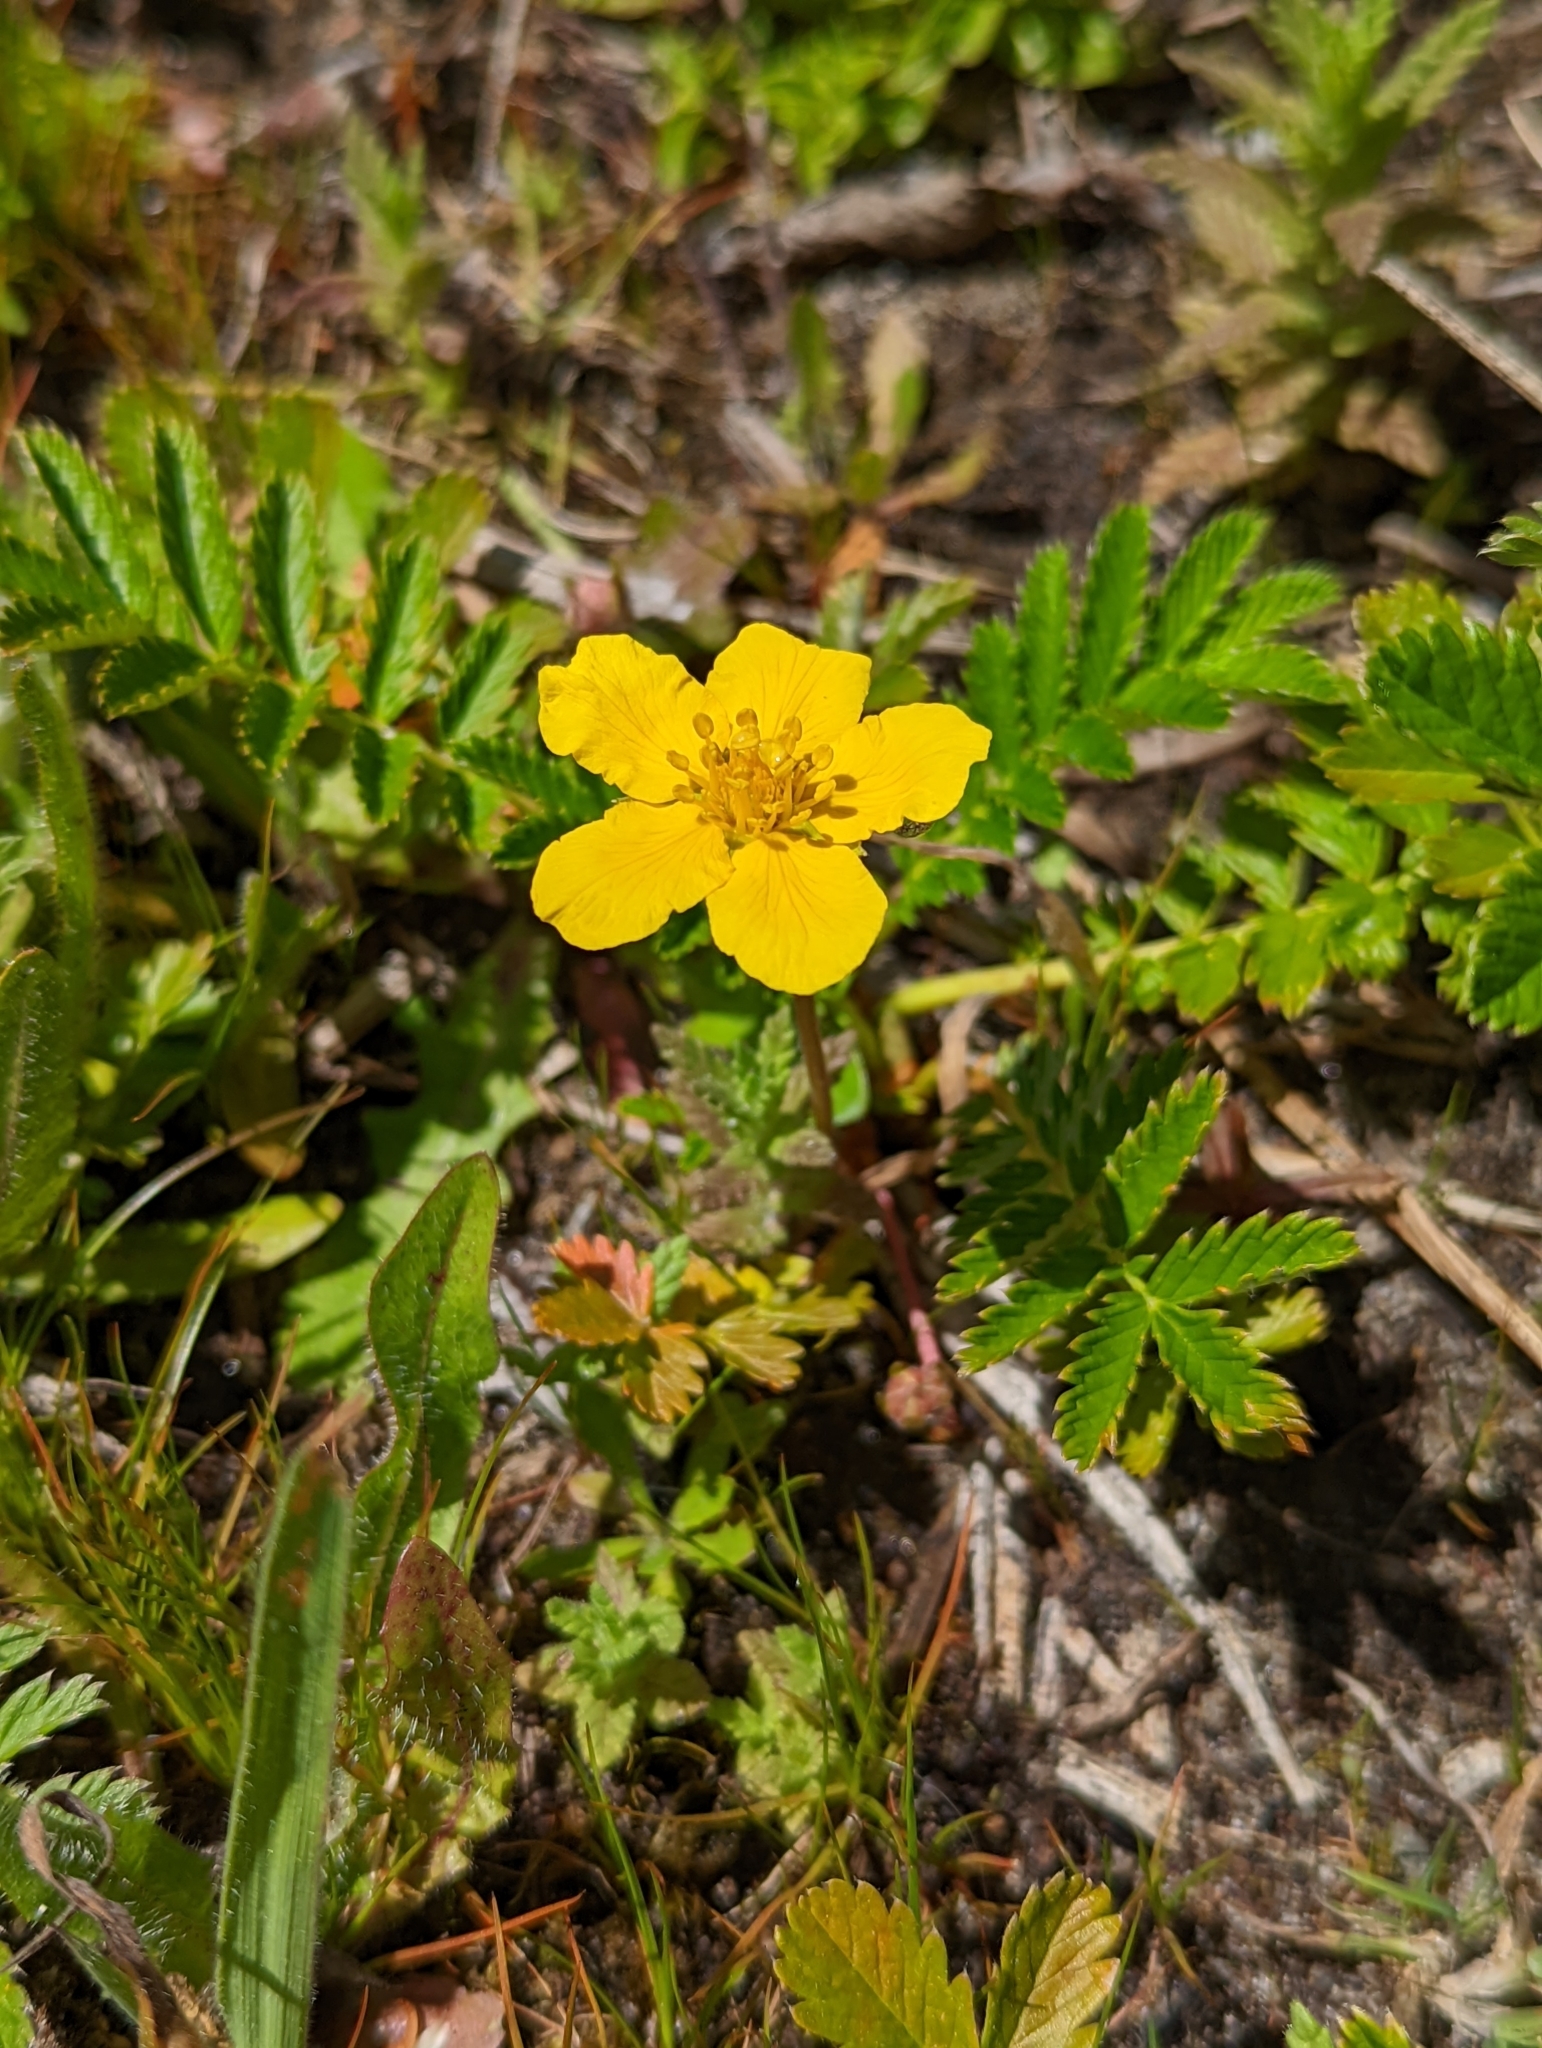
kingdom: Plantae
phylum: Tracheophyta
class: Magnoliopsida
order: Rosales
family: Rosaceae
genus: Argentina
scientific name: Argentina anserina
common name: Common silverweed
